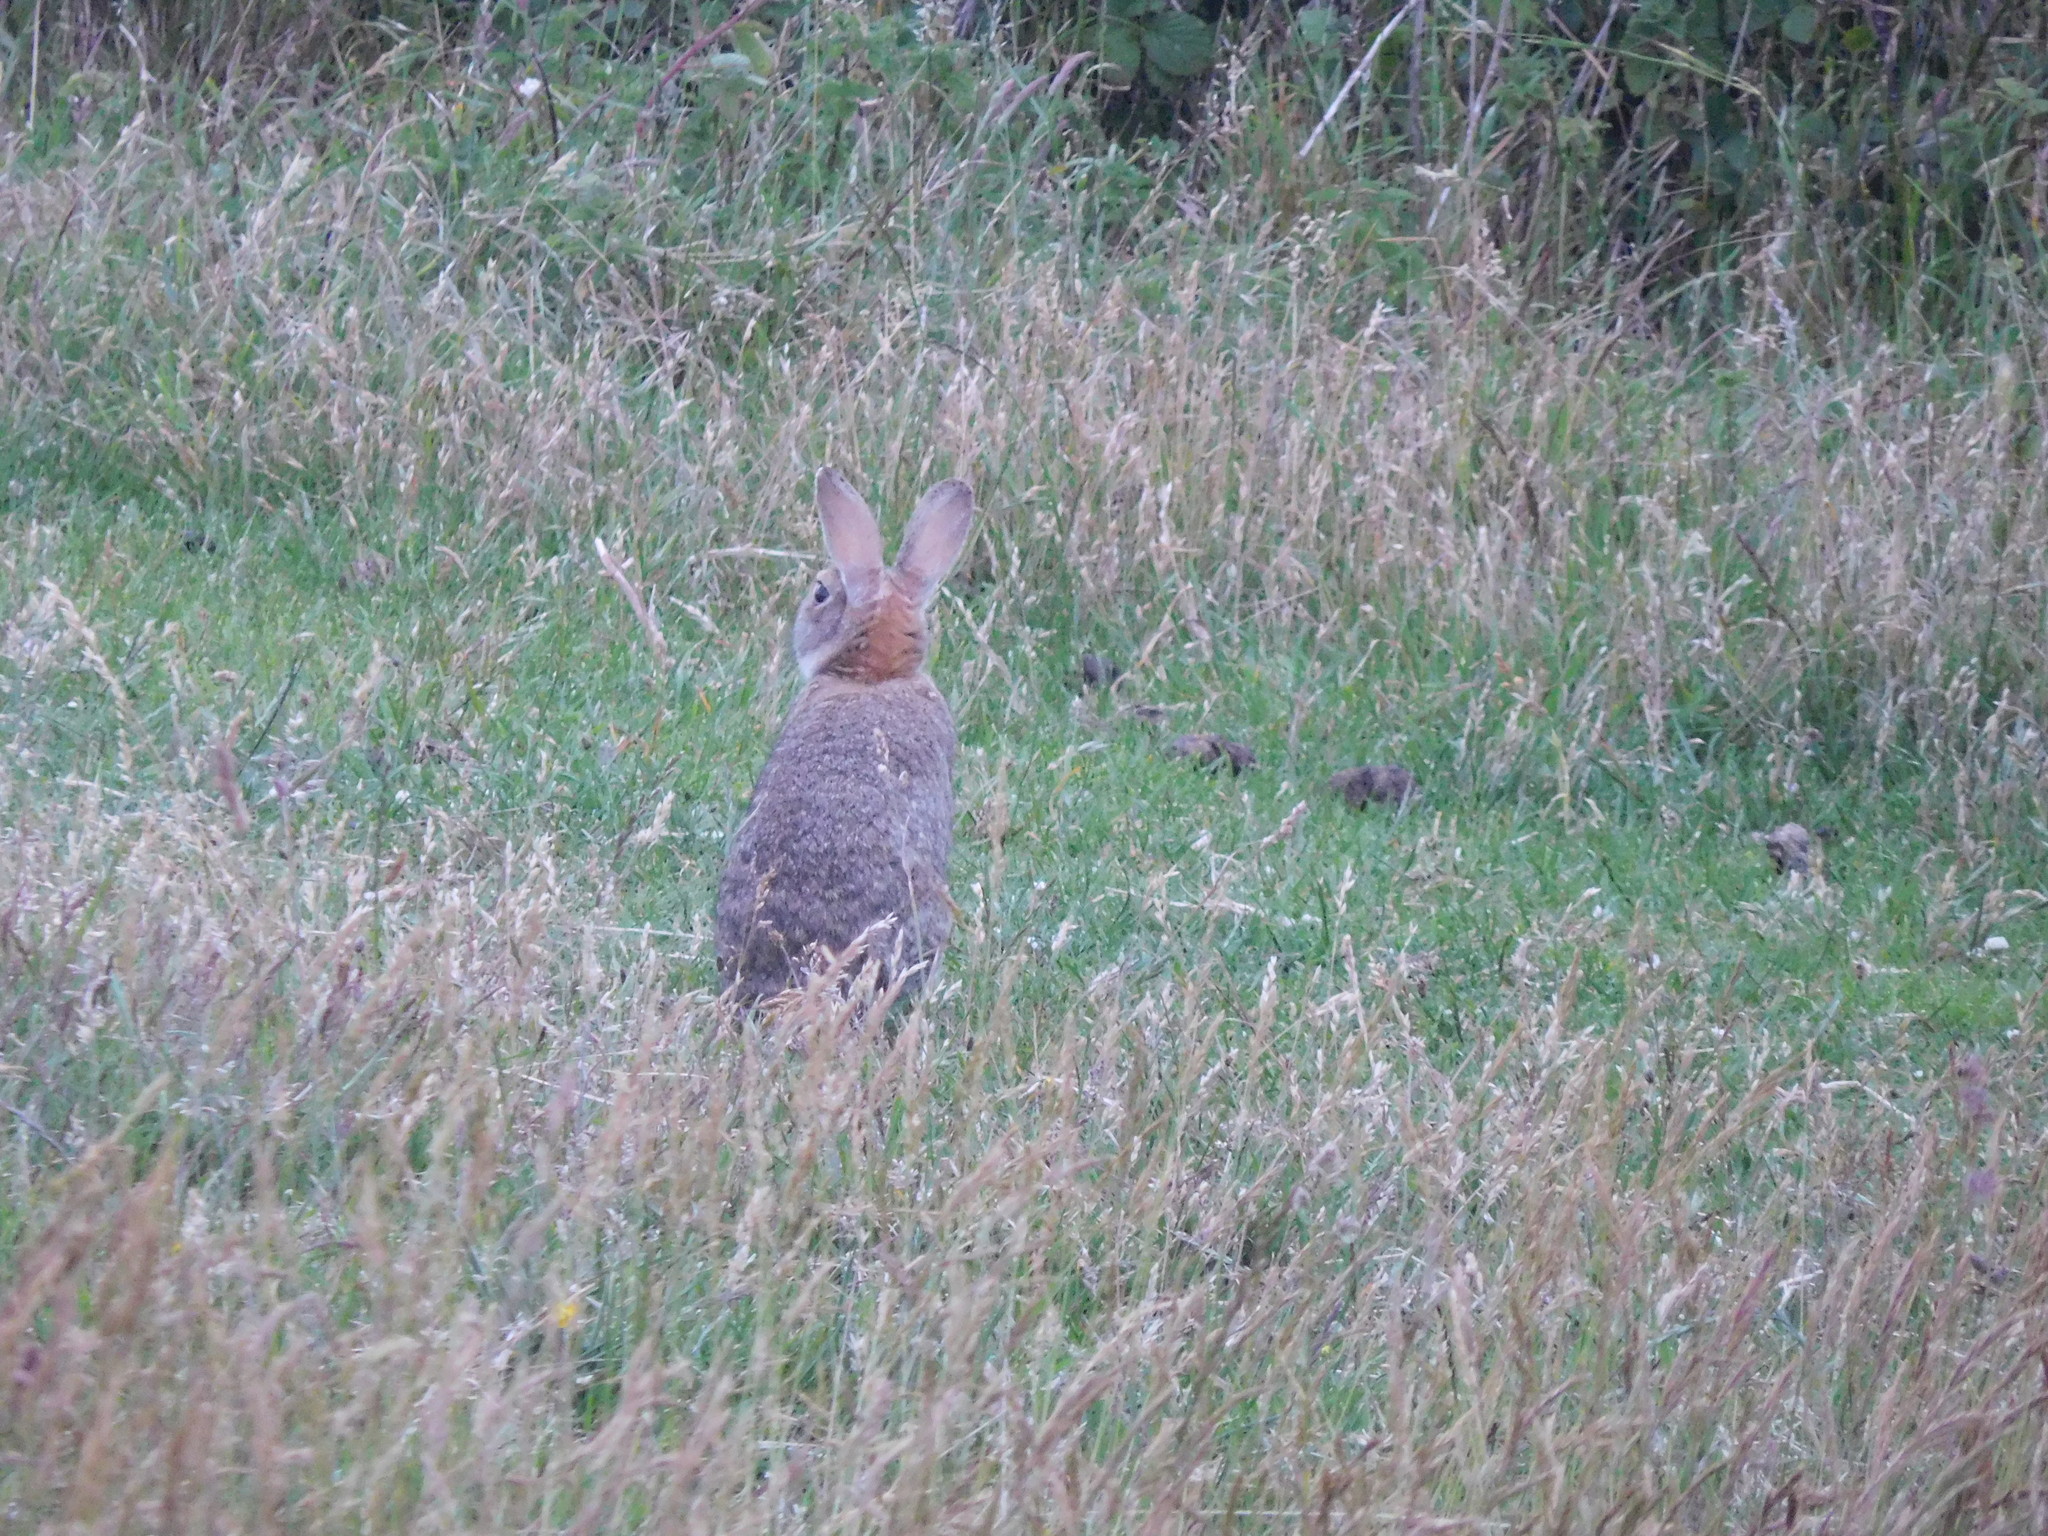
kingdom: Animalia
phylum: Chordata
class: Mammalia
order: Lagomorpha
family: Leporidae
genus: Oryctolagus
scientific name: Oryctolagus cuniculus
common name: European rabbit
